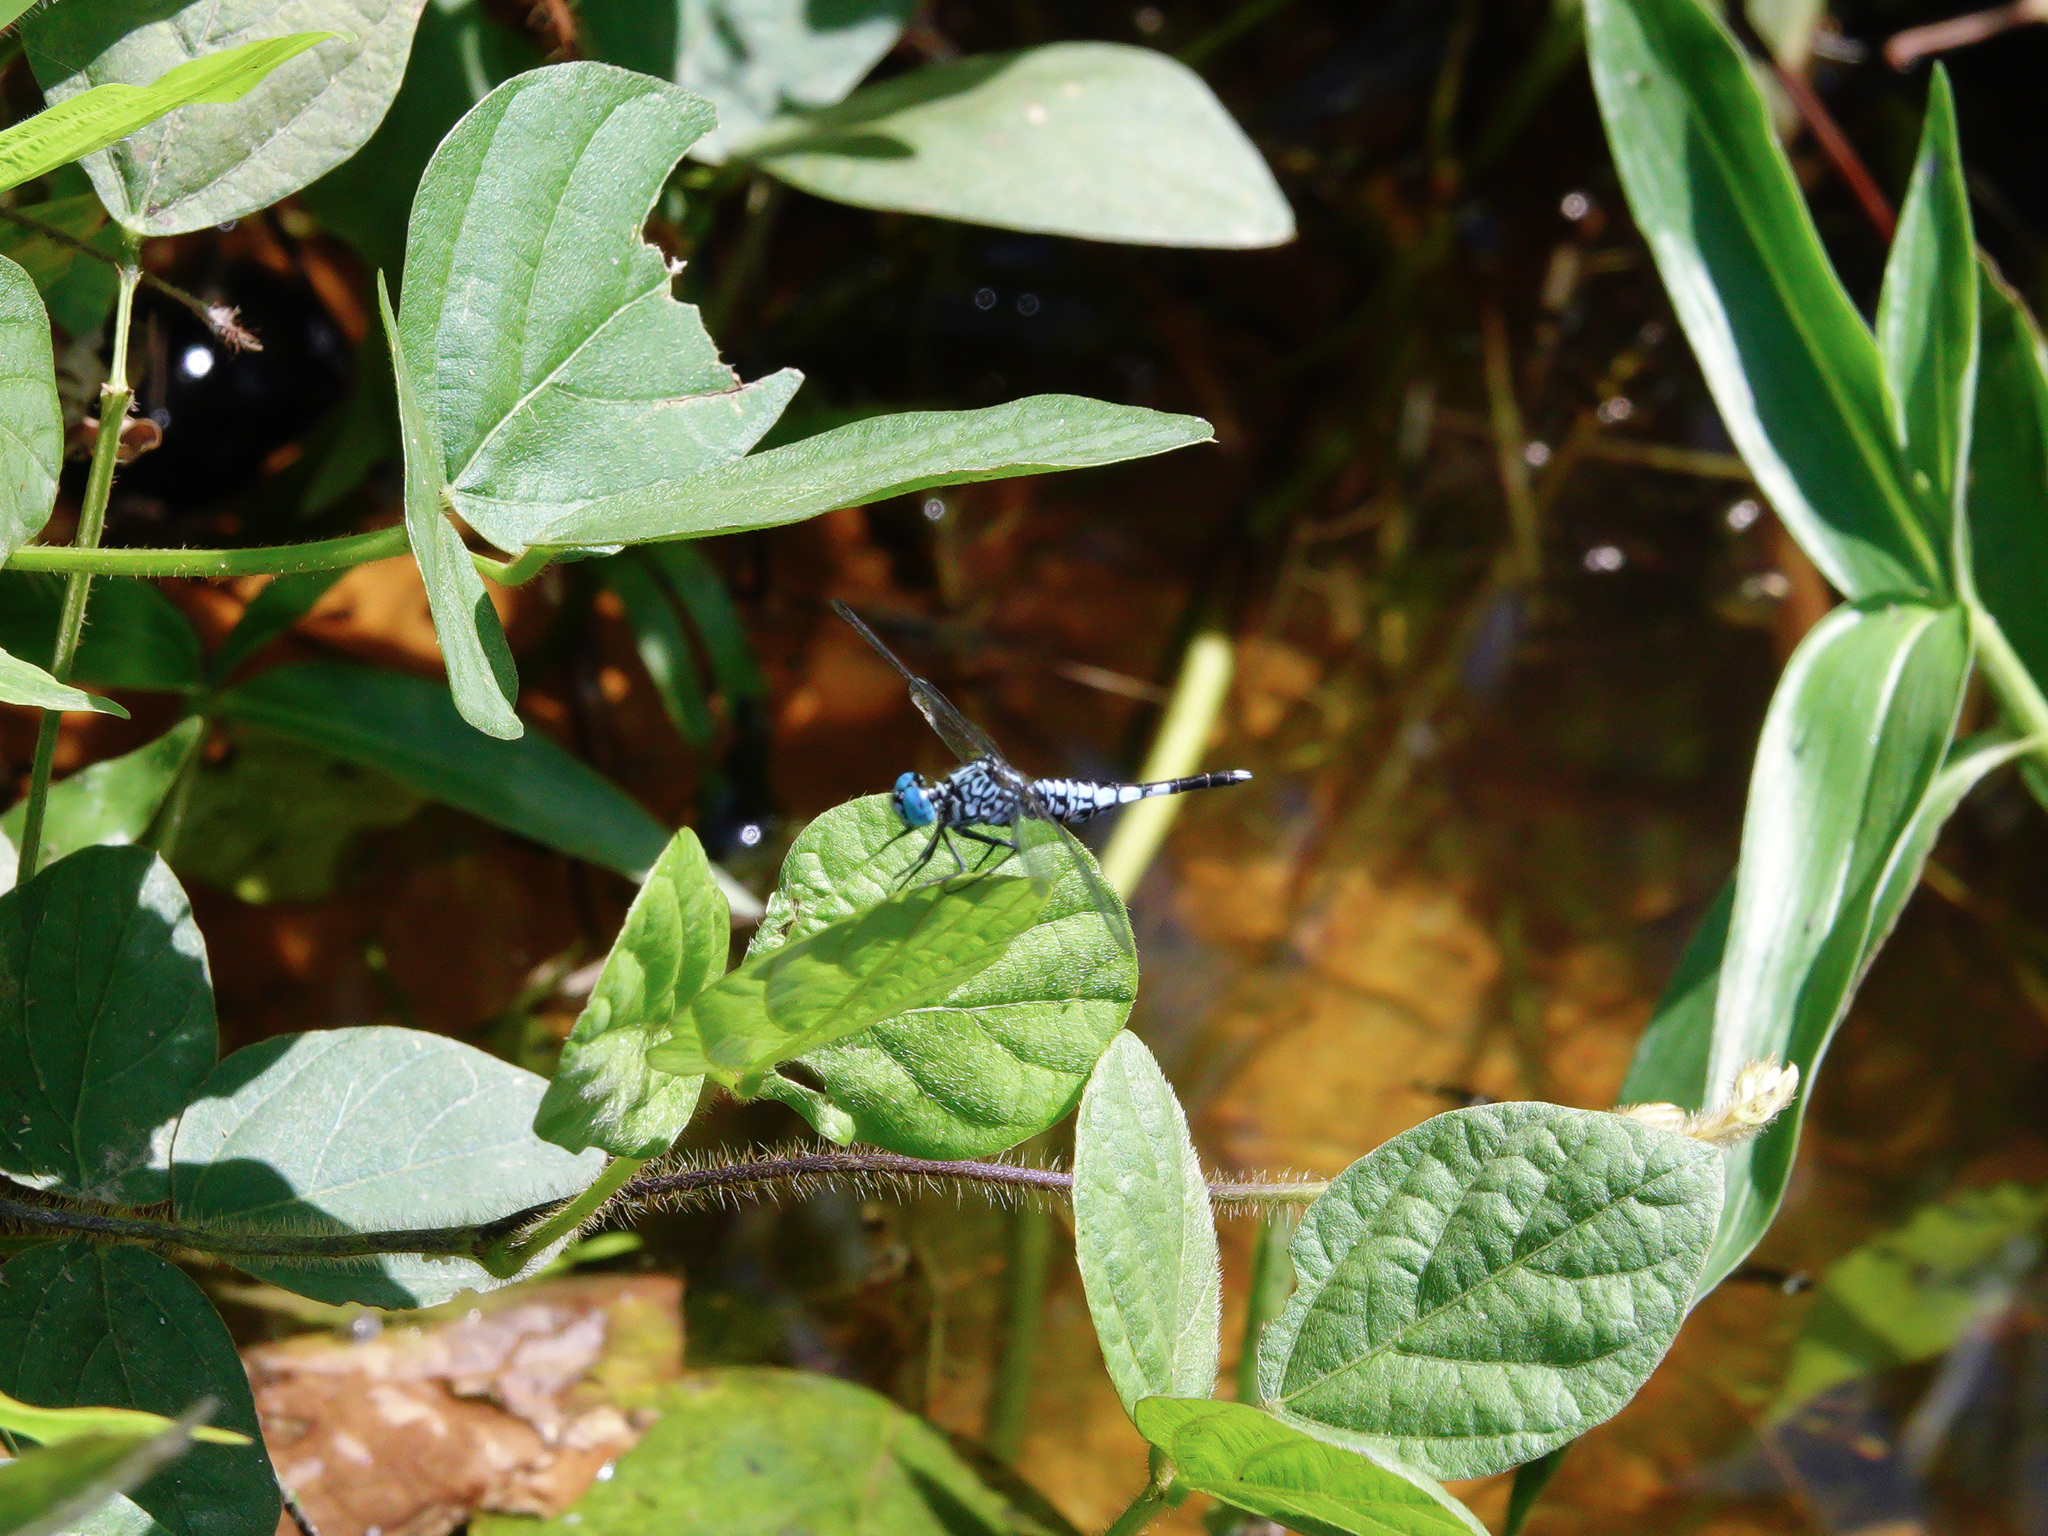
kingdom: Animalia
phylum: Arthropoda
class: Insecta
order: Odonata
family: Libellulidae
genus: Acisoma
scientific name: Acisoma panorpoides
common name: Asian pintail
